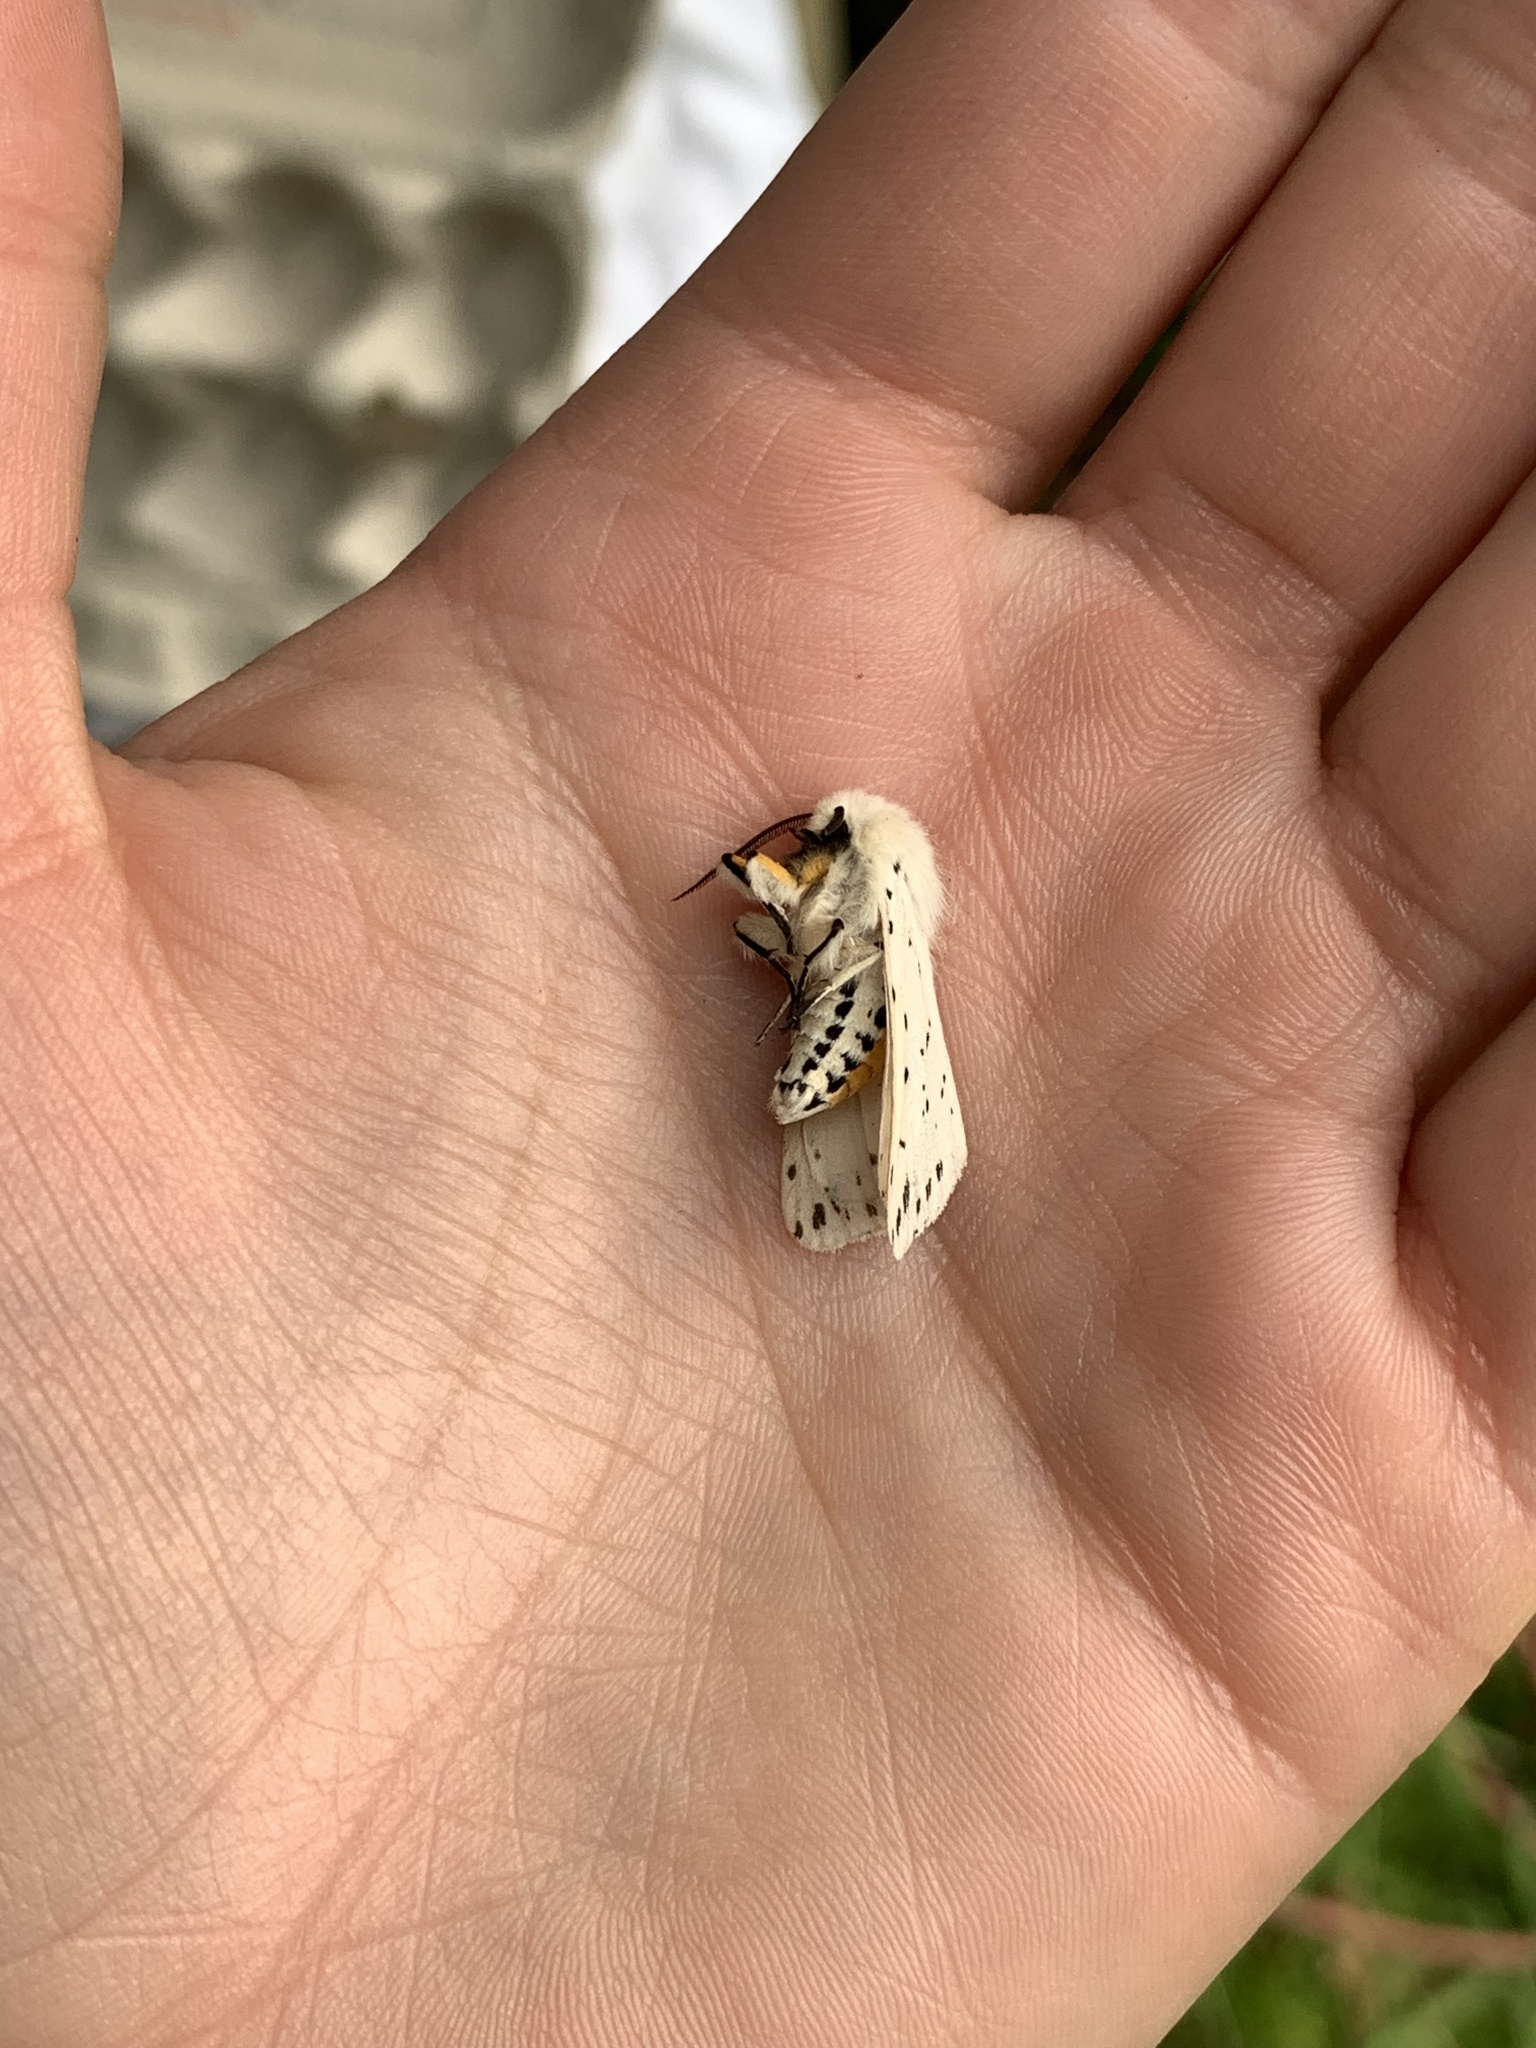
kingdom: Animalia
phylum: Arthropoda
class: Insecta
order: Lepidoptera
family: Erebidae
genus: Spilosoma
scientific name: Spilosoma lubricipeda
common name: White ermine
